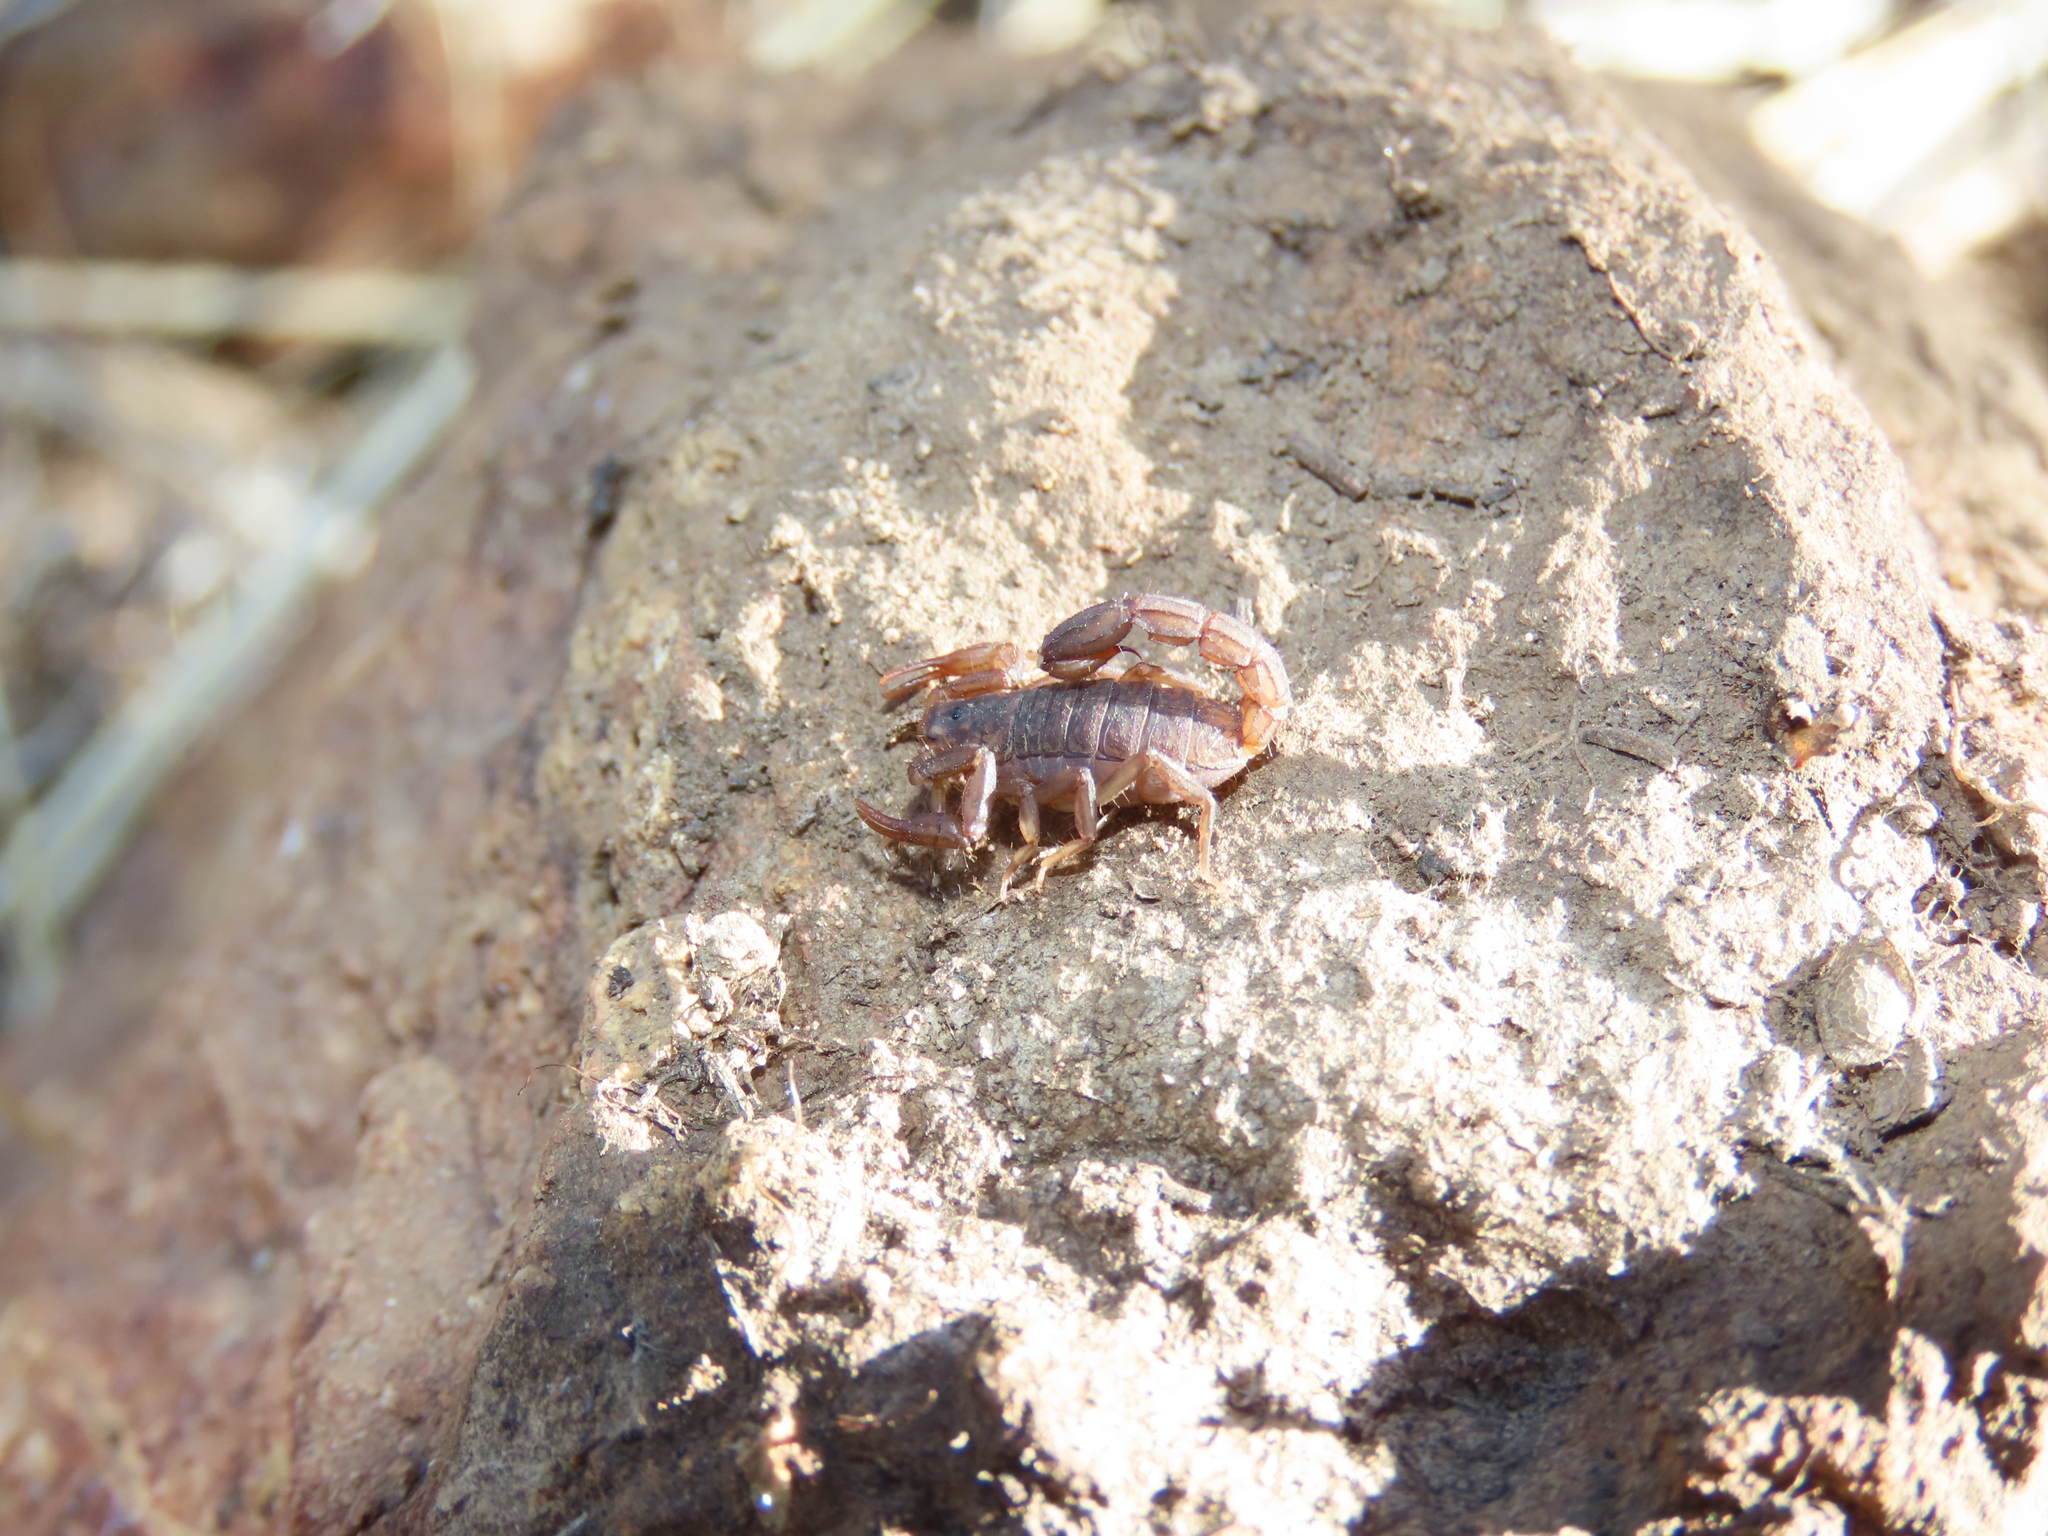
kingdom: Animalia
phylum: Arthropoda
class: Arachnida
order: Scorpiones
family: Vaejovidae
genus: Vaejovis
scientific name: Vaejovis cashi
